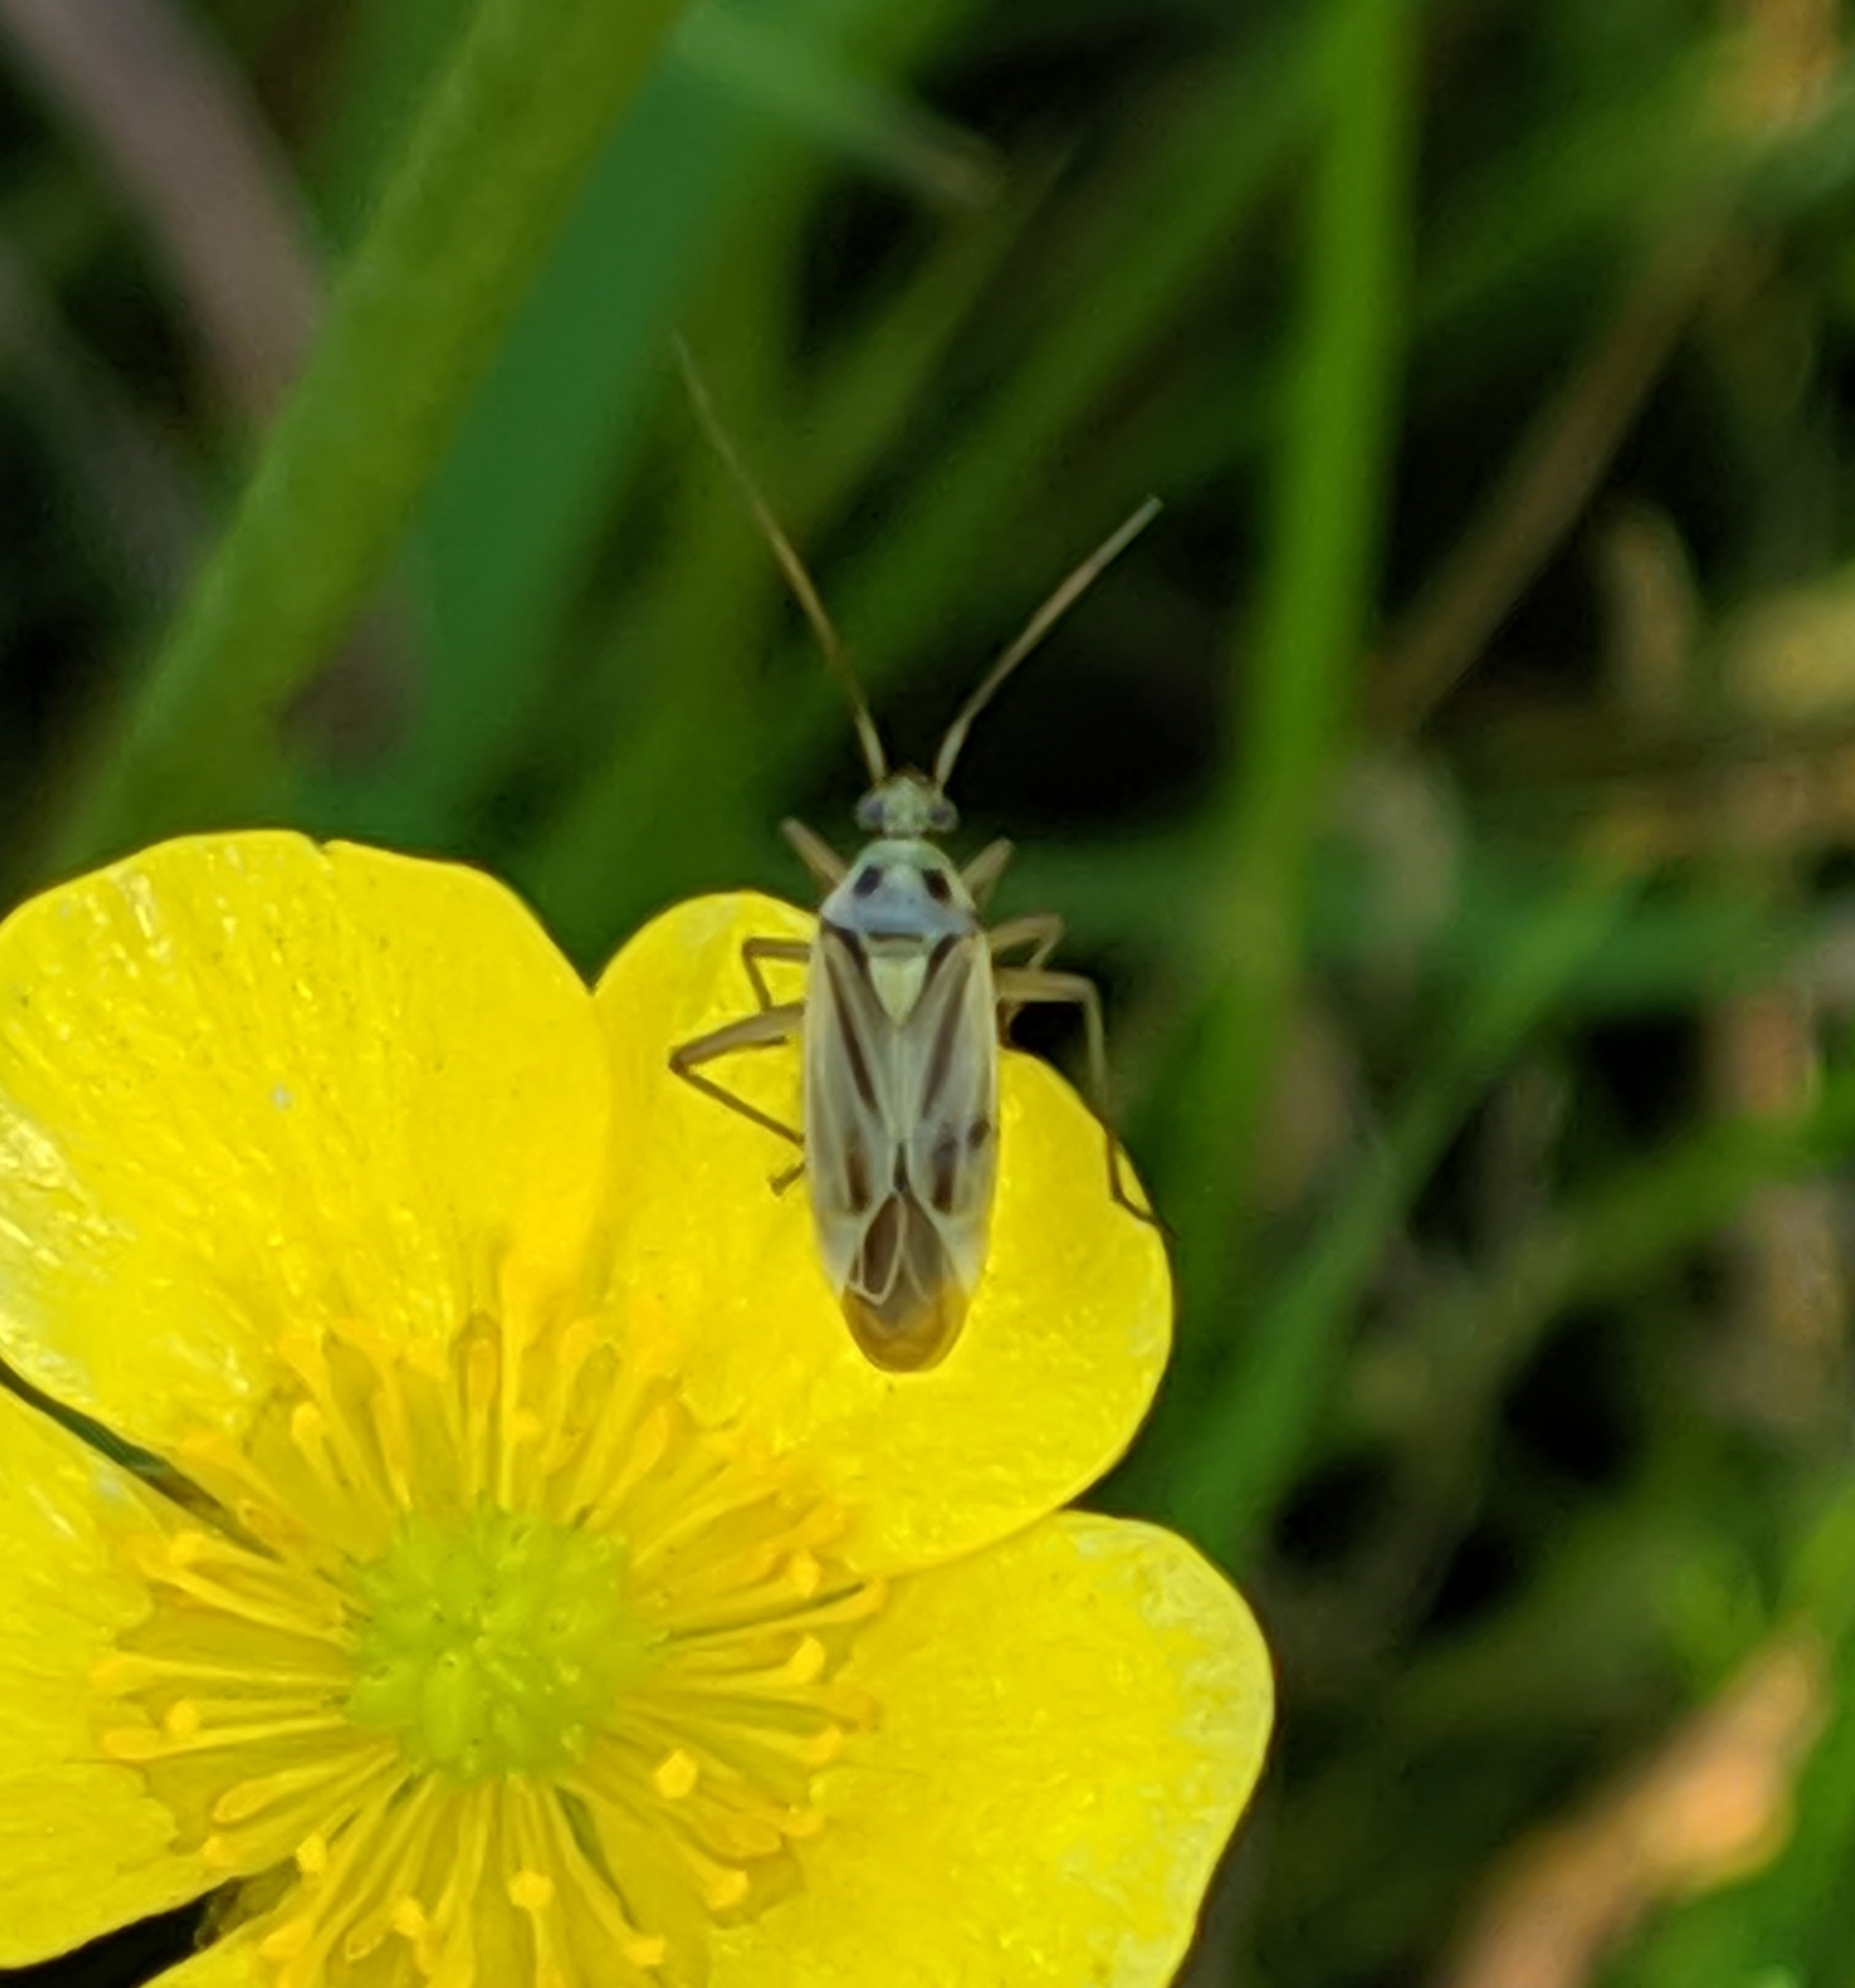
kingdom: Animalia
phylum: Arthropoda
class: Insecta
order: Hemiptera
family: Miridae
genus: Stenotus
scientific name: Stenotus binotatus
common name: Plant bug
